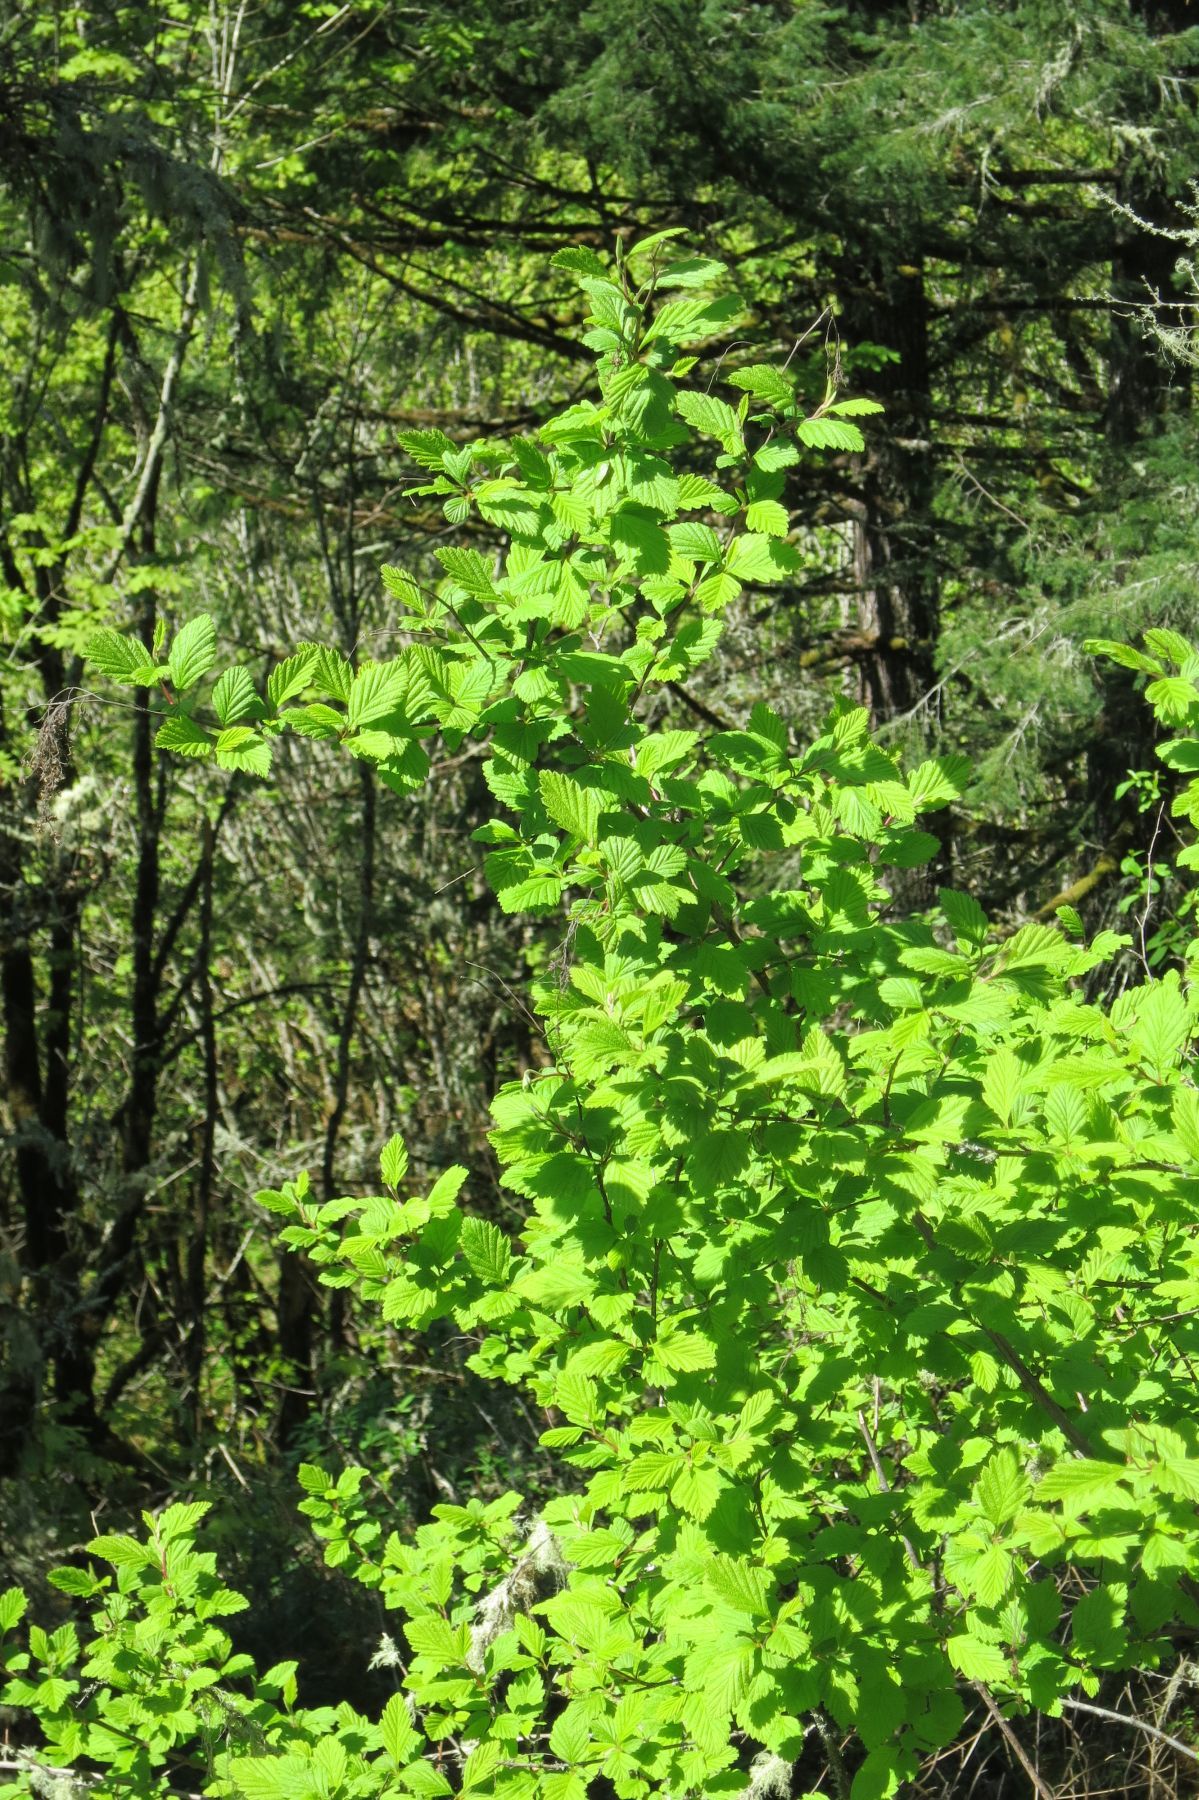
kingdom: Plantae
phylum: Tracheophyta
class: Magnoliopsida
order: Rosales
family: Rosaceae
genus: Holodiscus
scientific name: Holodiscus discolor
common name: Oceanspray
